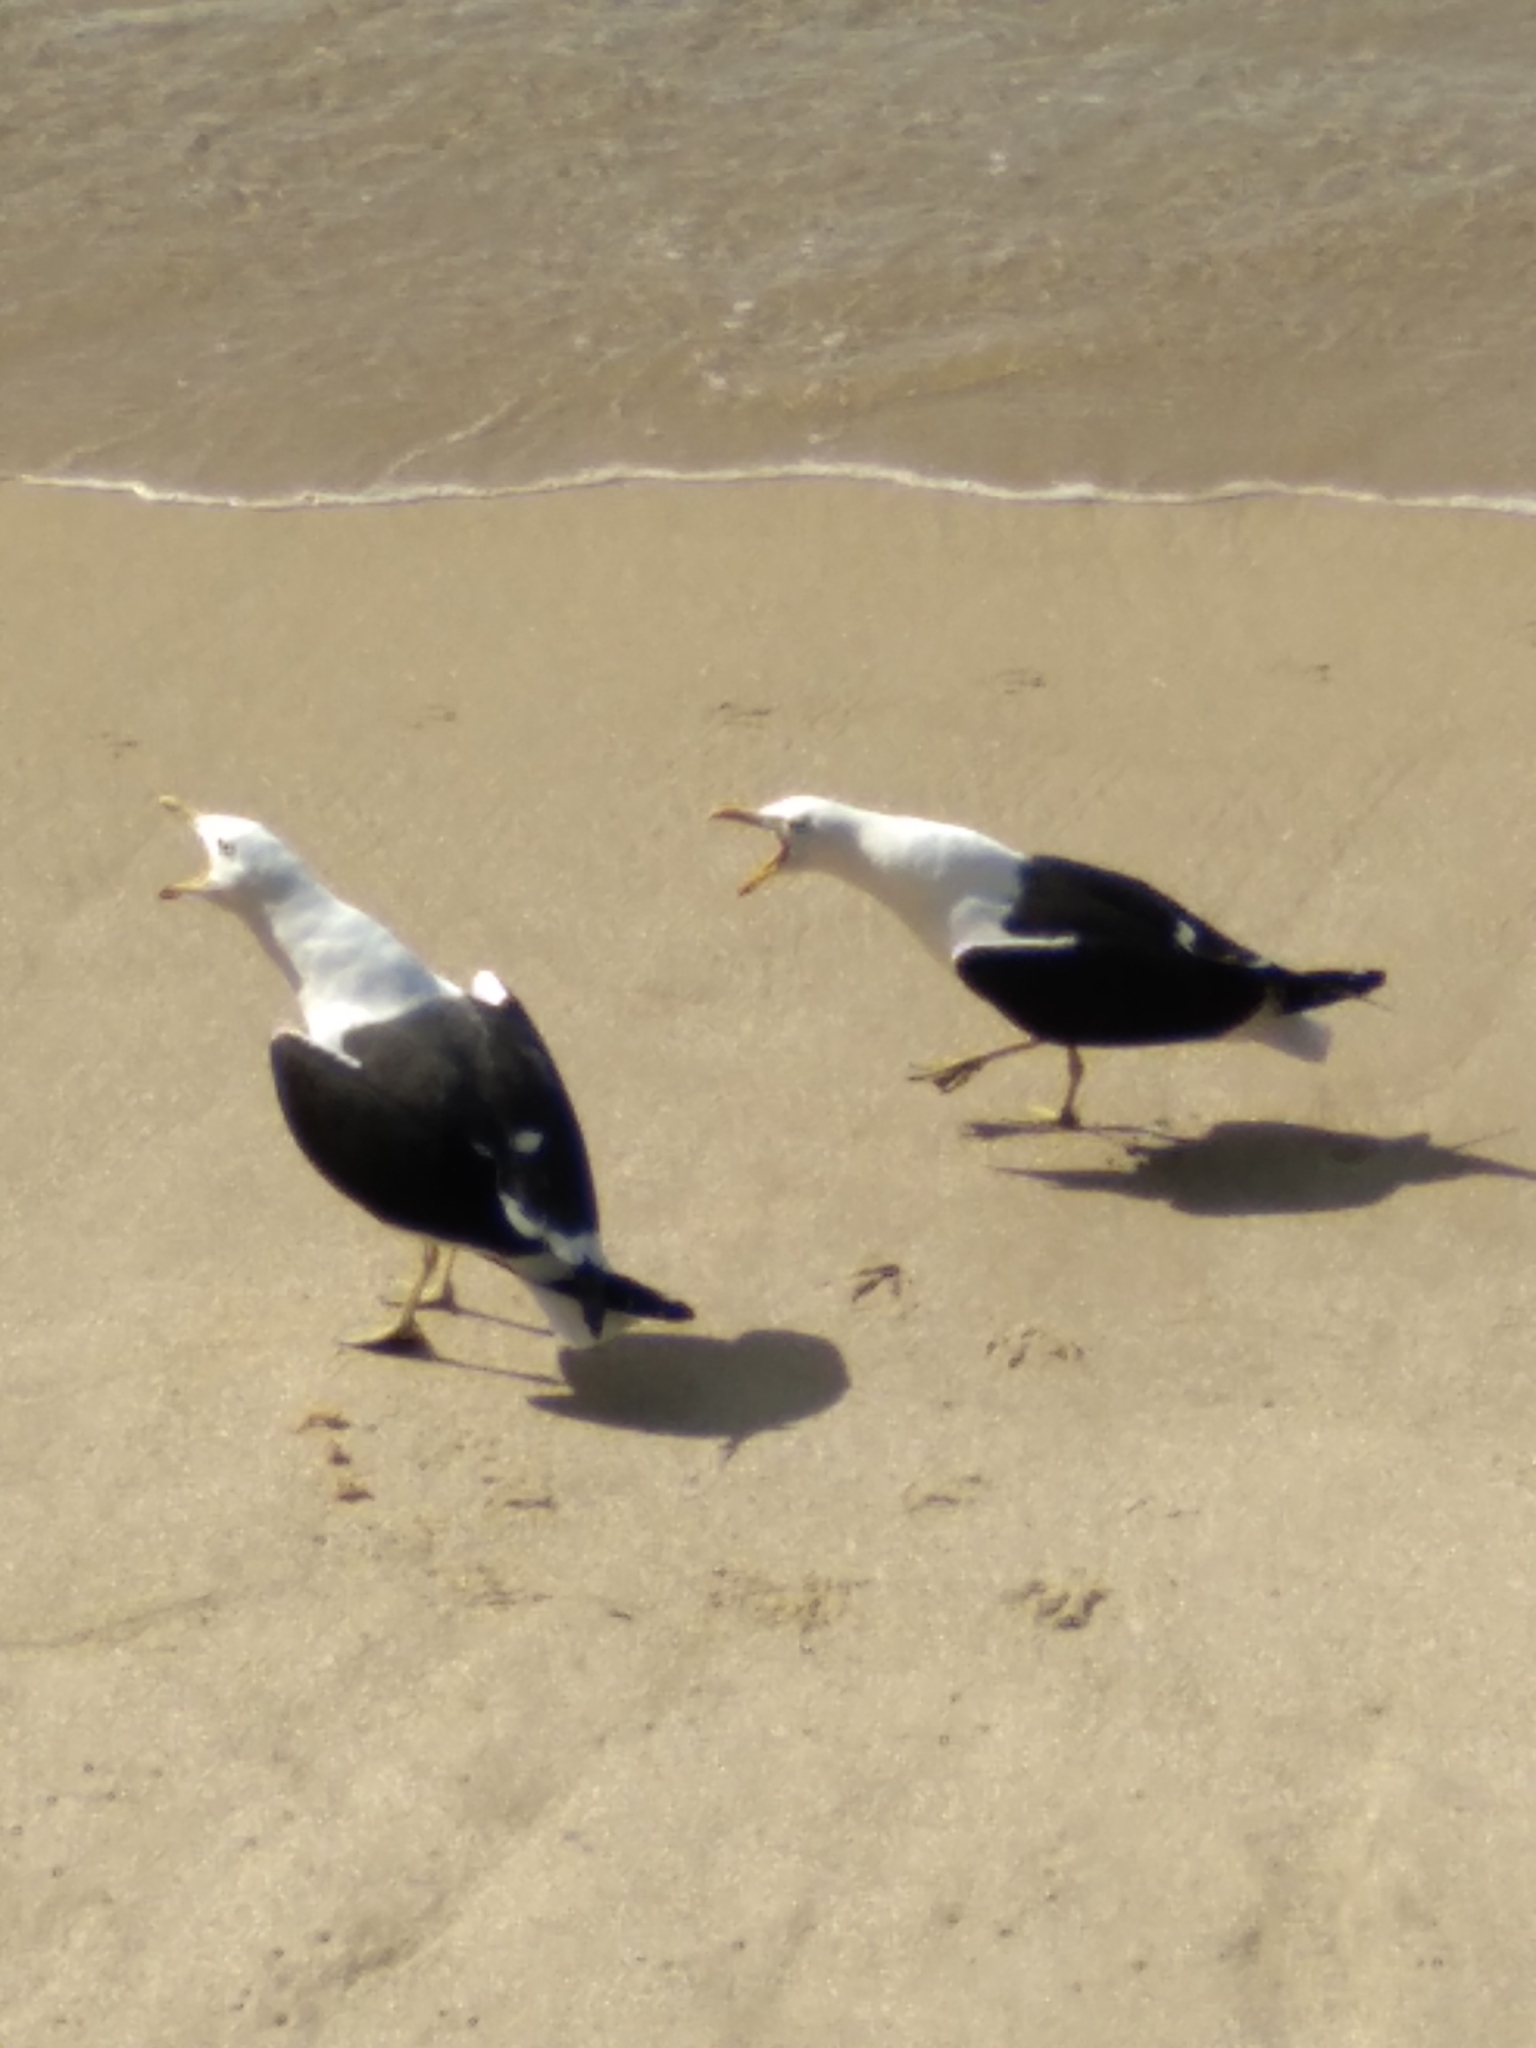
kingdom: Animalia
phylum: Chordata
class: Aves
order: Charadriiformes
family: Laridae
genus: Larus
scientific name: Larus dominicanus
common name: Kelp gull
